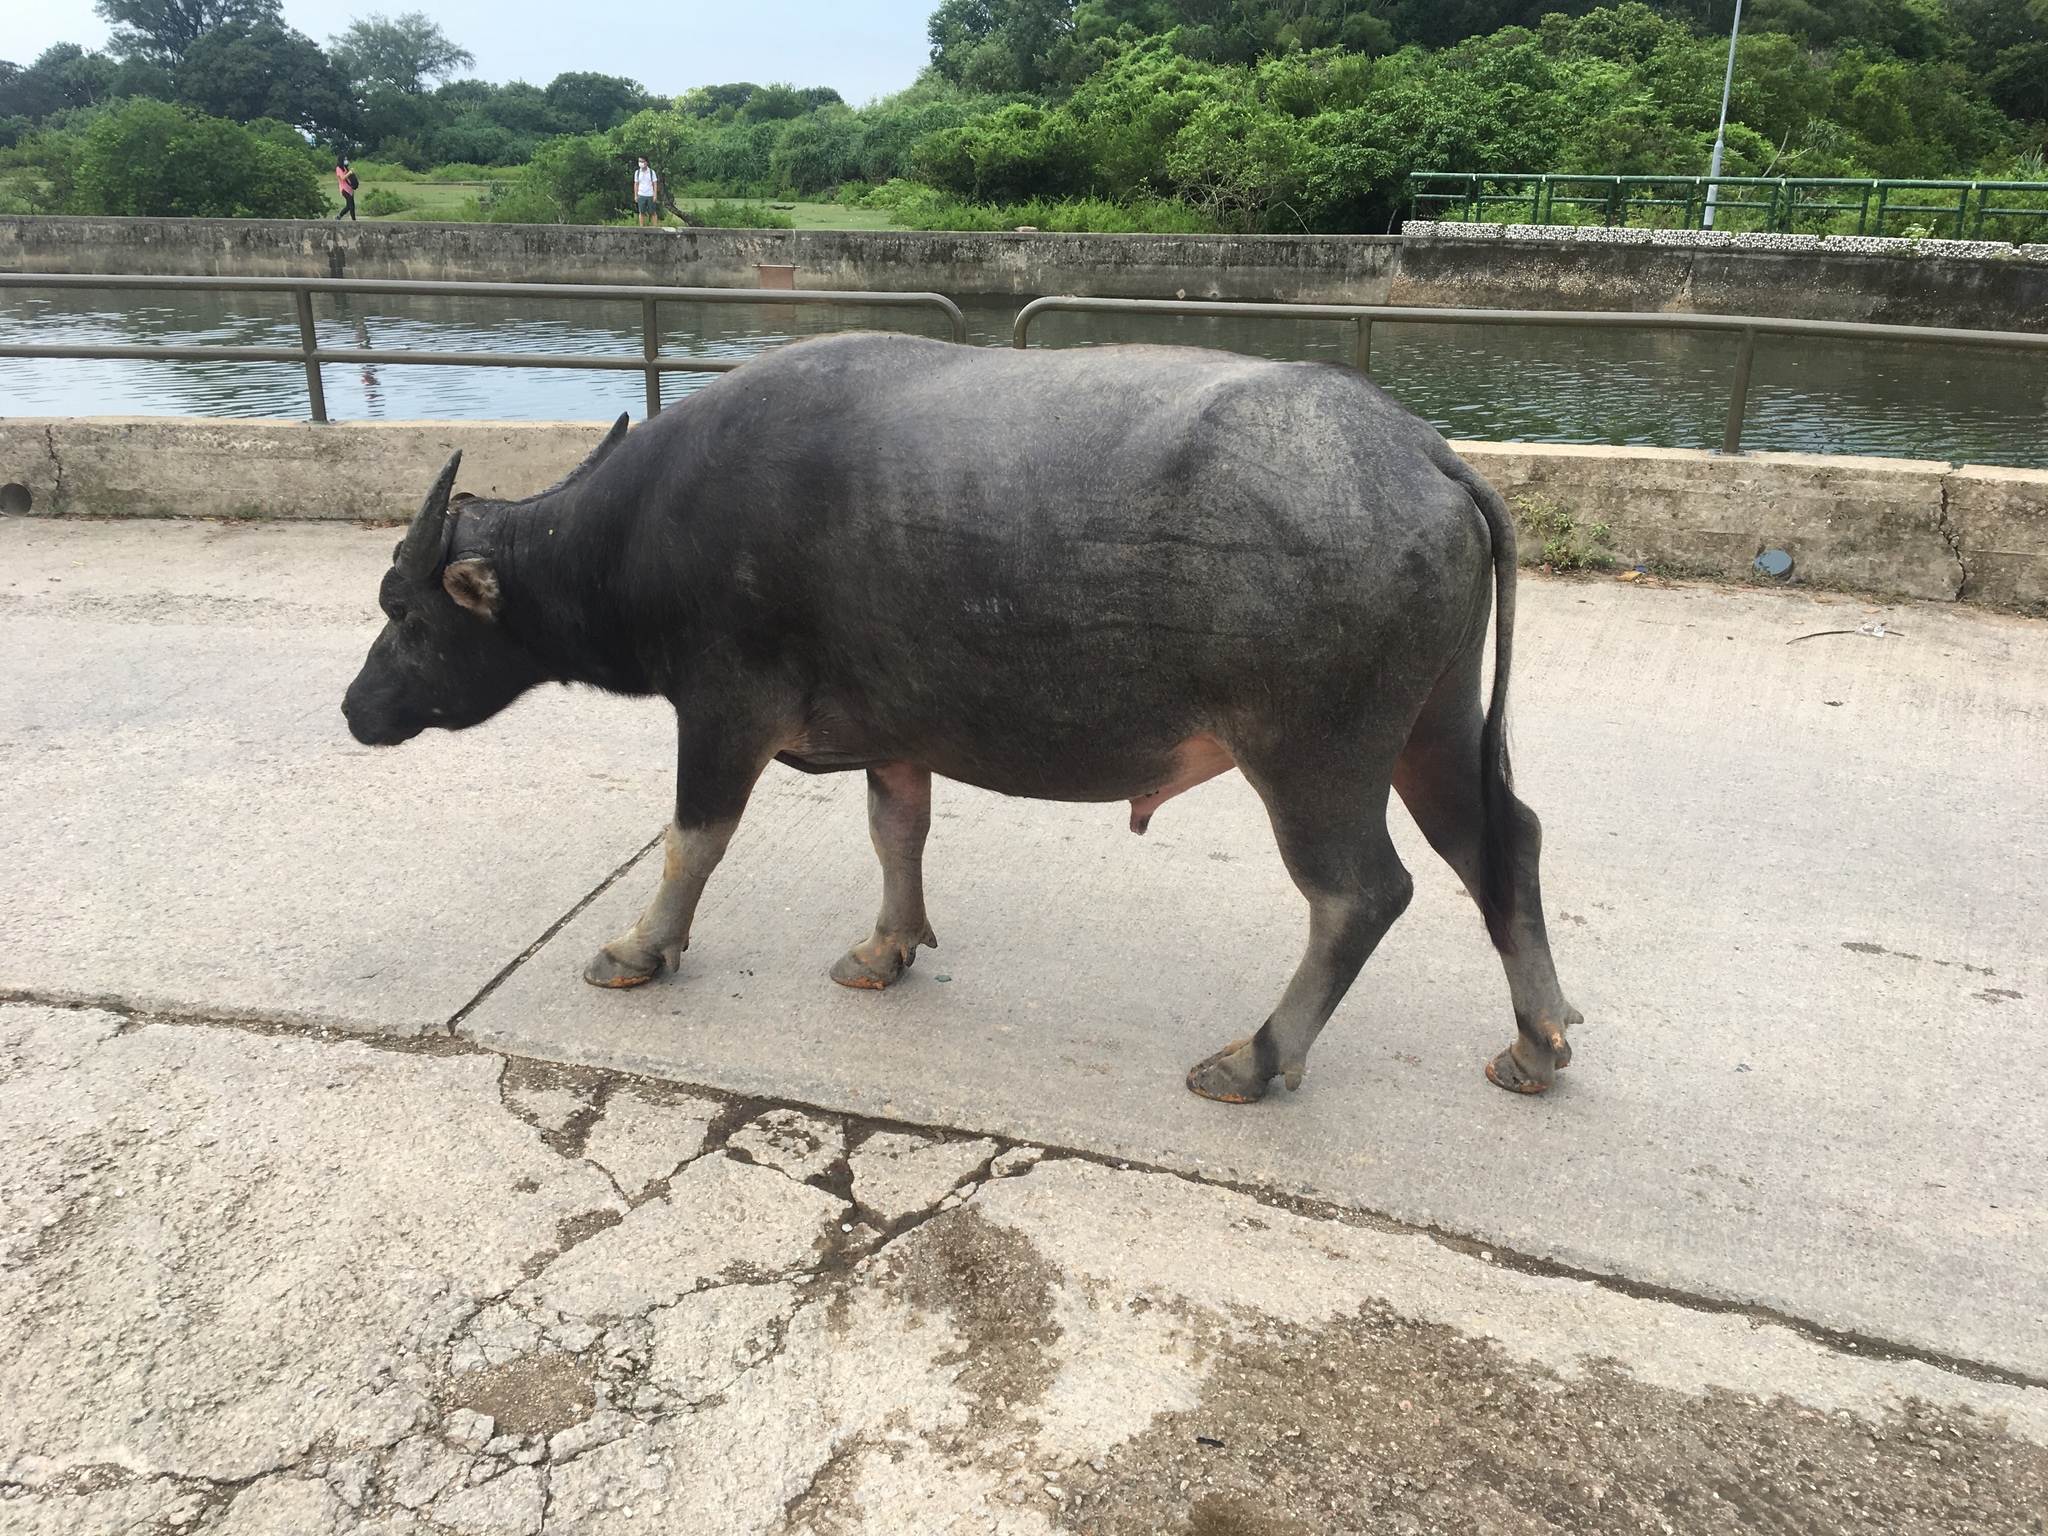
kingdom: Animalia
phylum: Chordata
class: Mammalia
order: Artiodactyla
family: Bovidae
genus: Bubalus
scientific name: Bubalus bubalis
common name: Water buffalo
